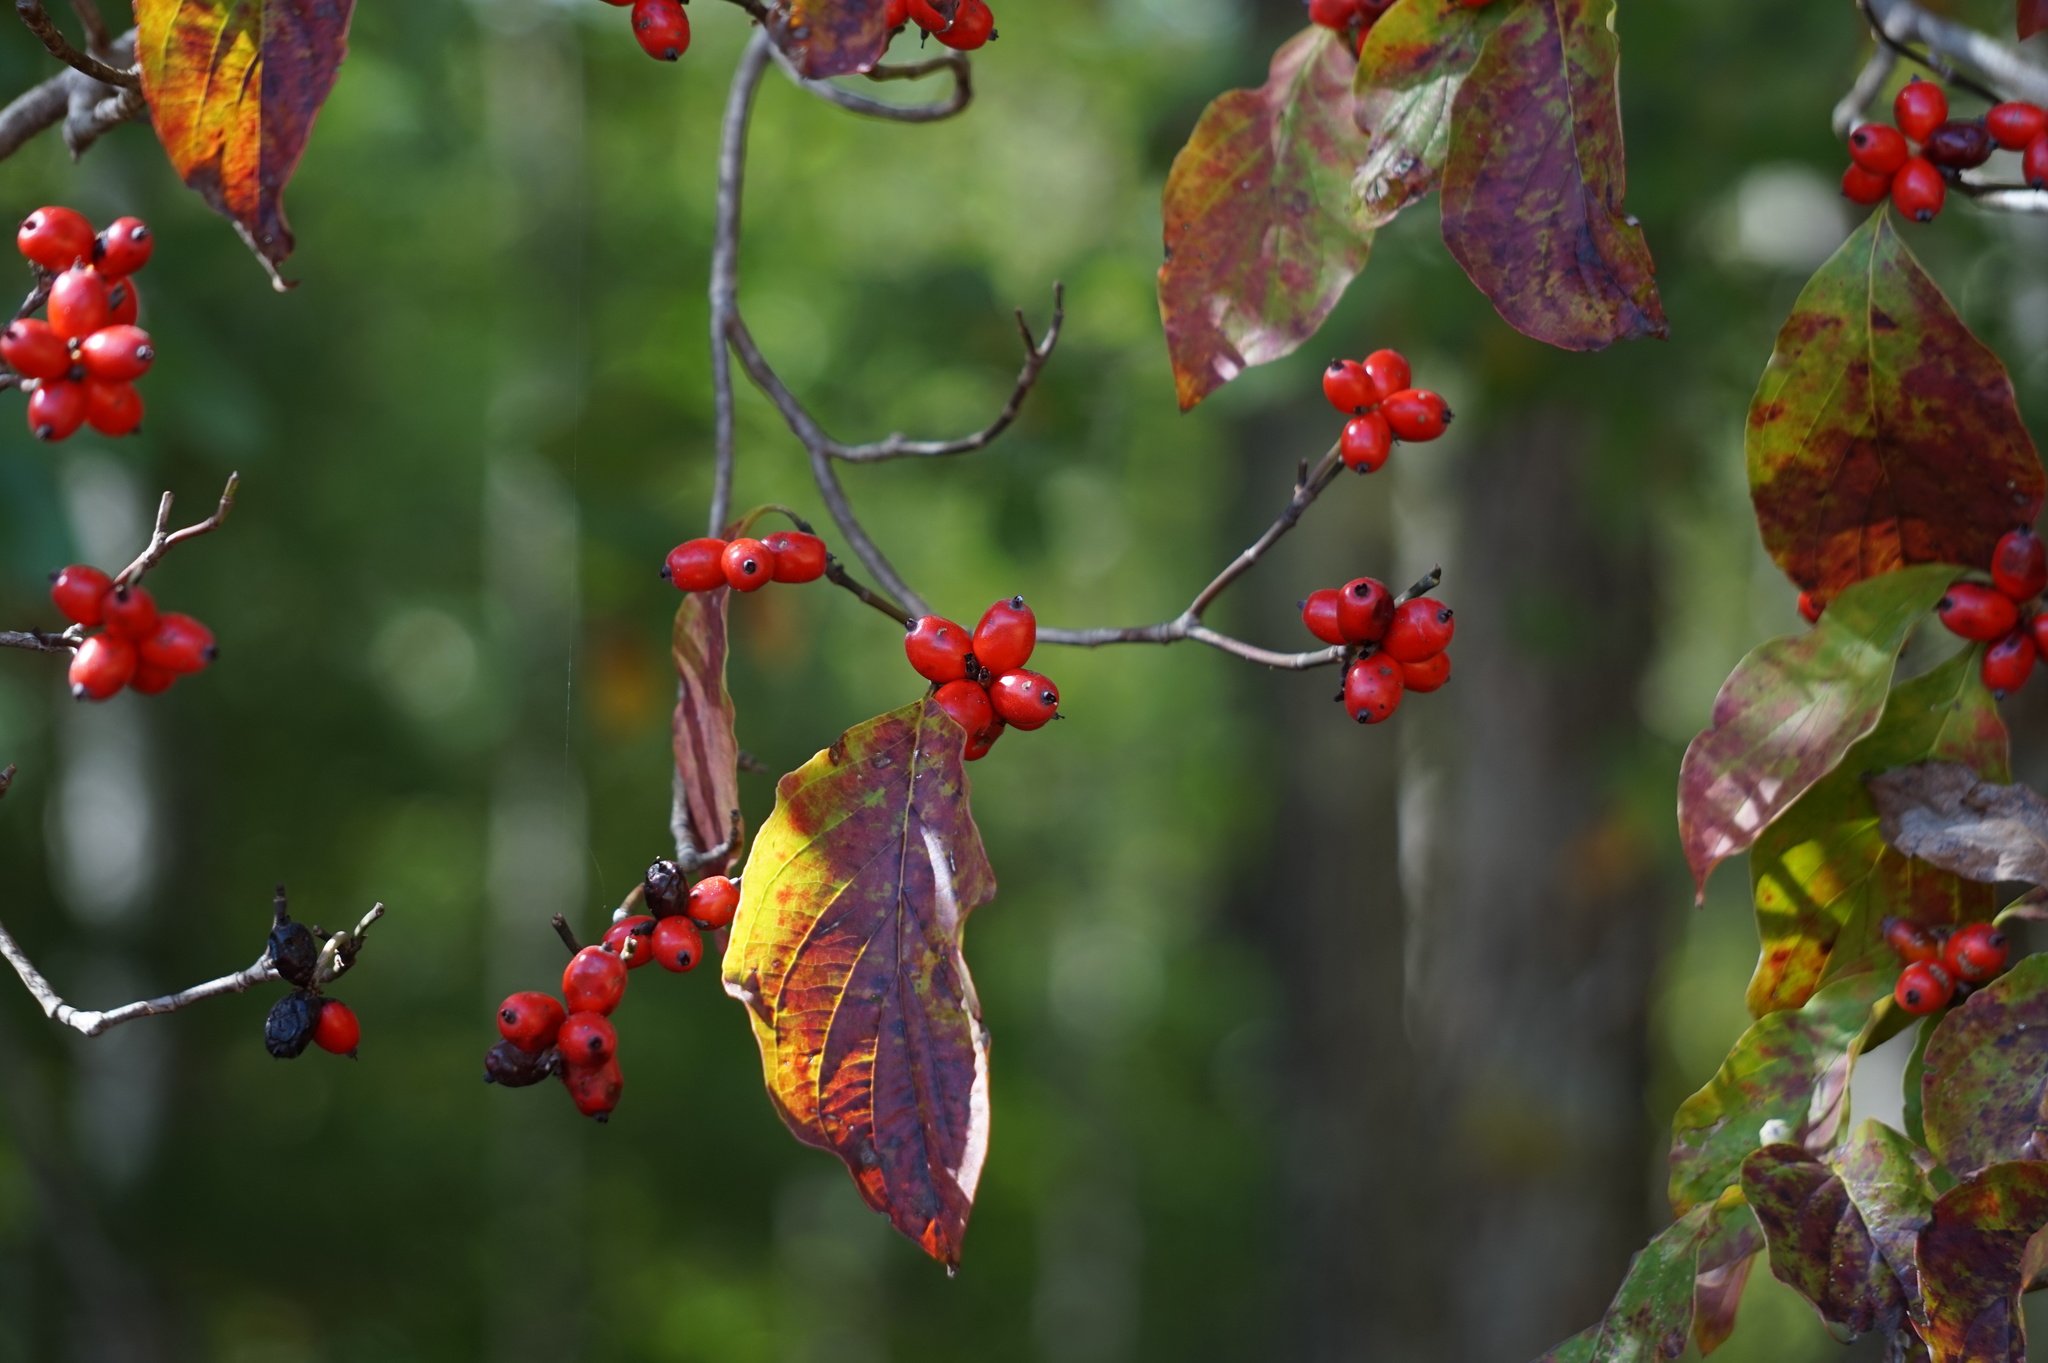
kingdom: Plantae
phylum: Tracheophyta
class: Magnoliopsida
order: Cornales
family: Cornaceae
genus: Cornus
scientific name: Cornus florida
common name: Flowering dogwood
